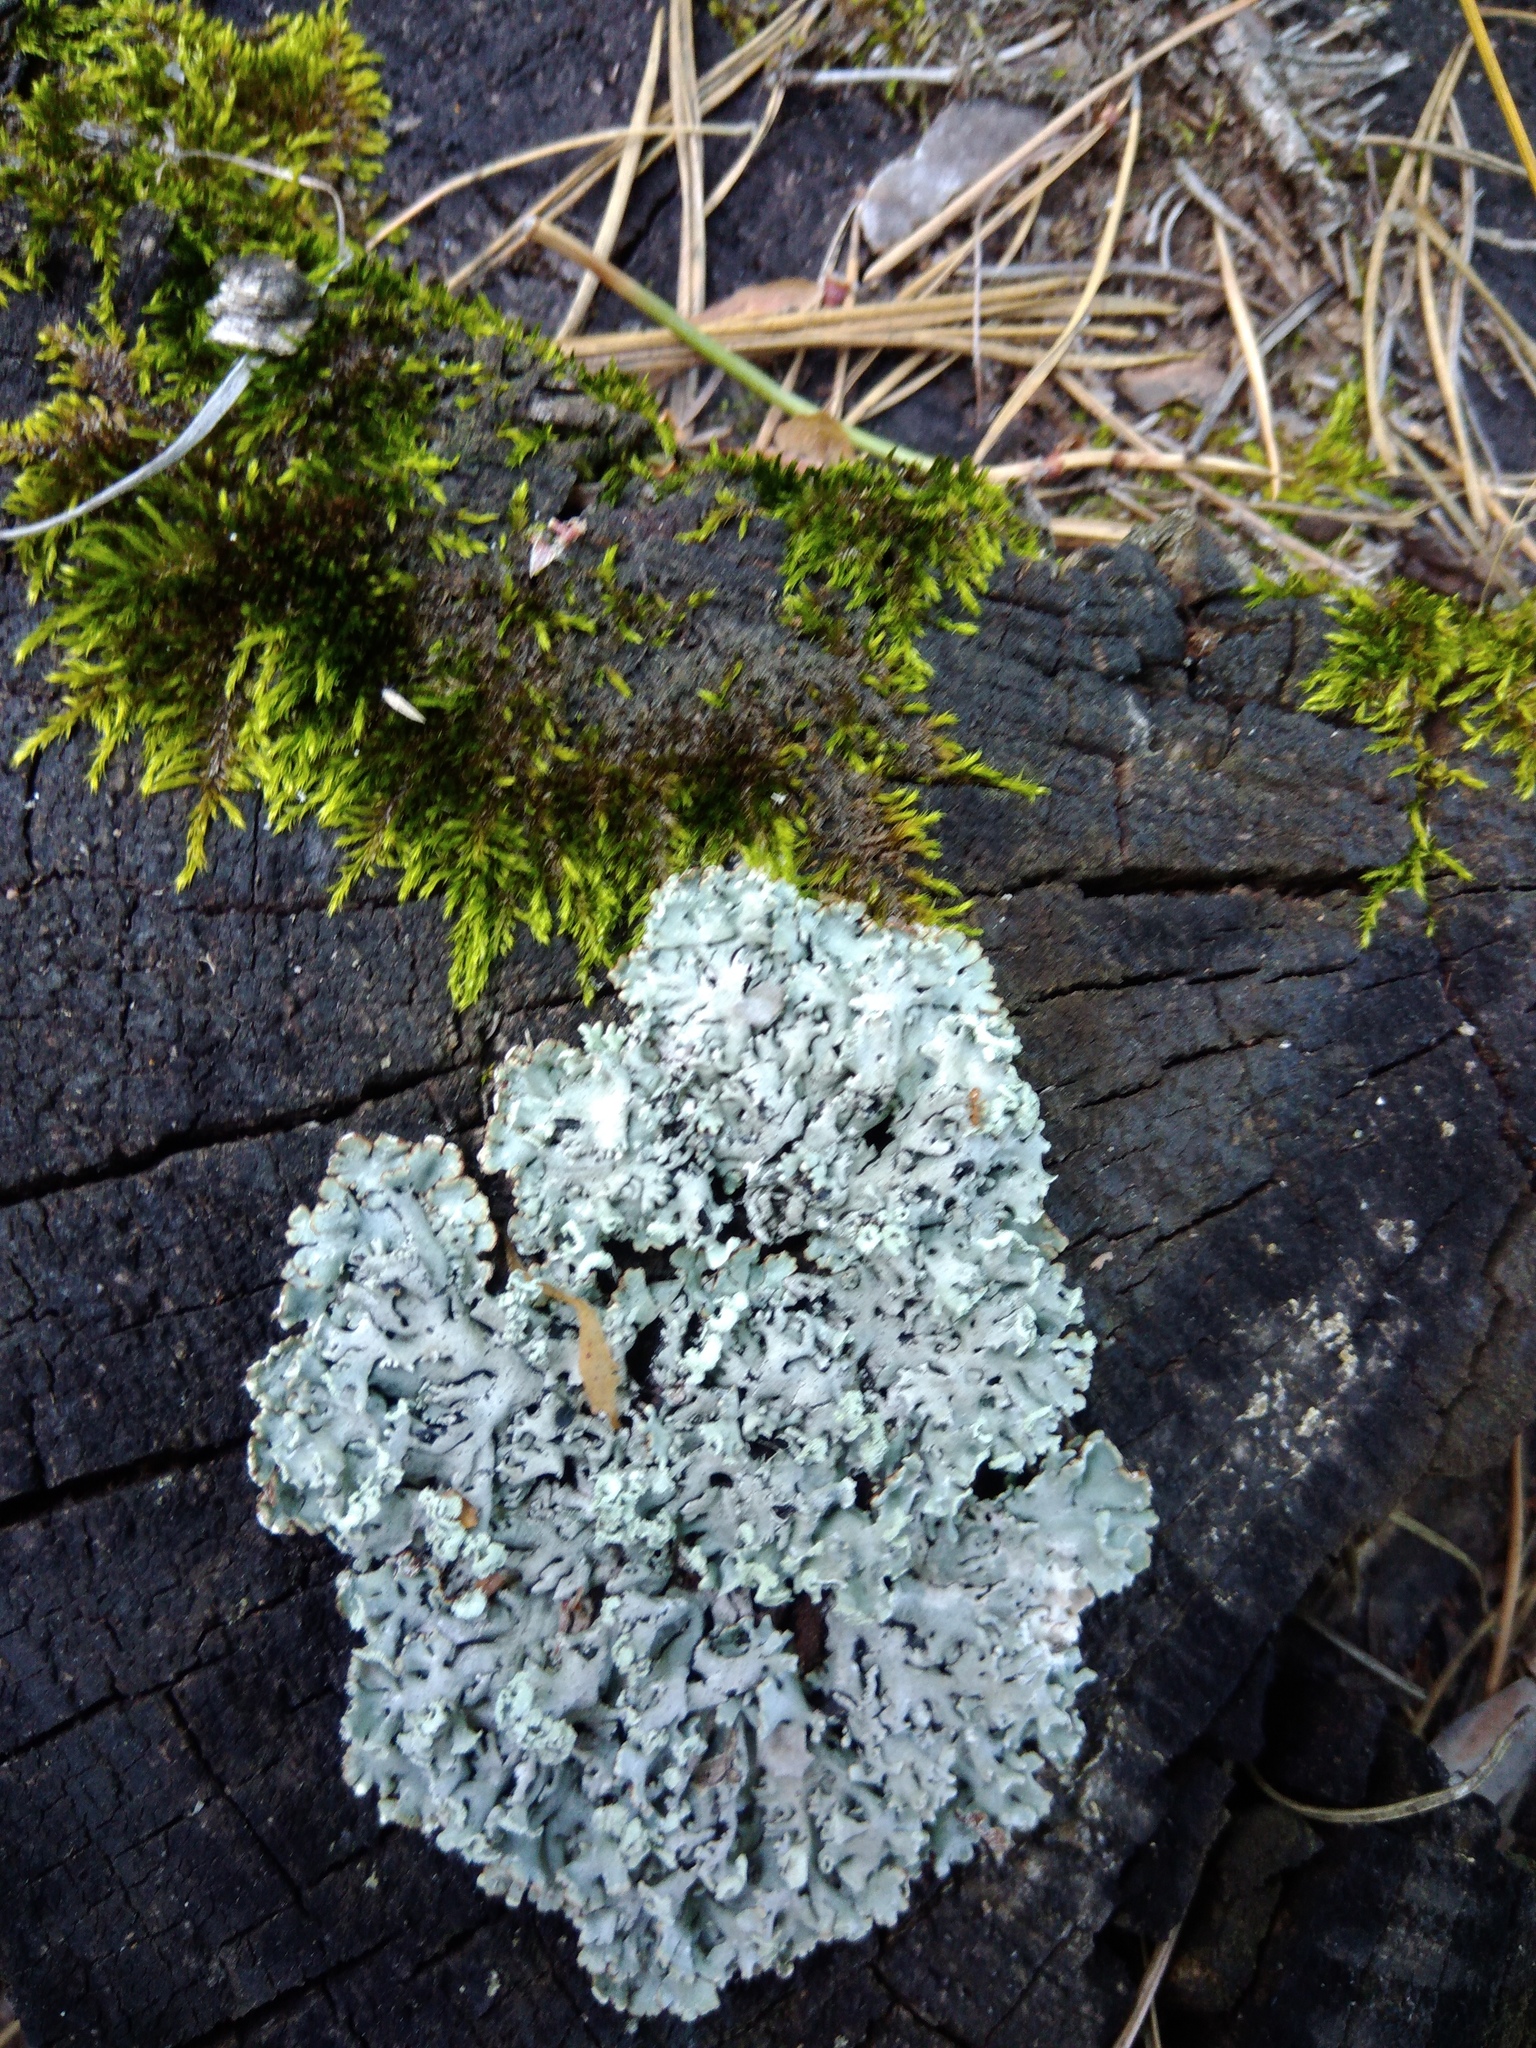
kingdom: Fungi
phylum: Ascomycota
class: Lecanoromycetes
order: Lecanorales
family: Parmeliaceae
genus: Hypogymnia
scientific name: Hypogymnia physodes
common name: Dark crottle
